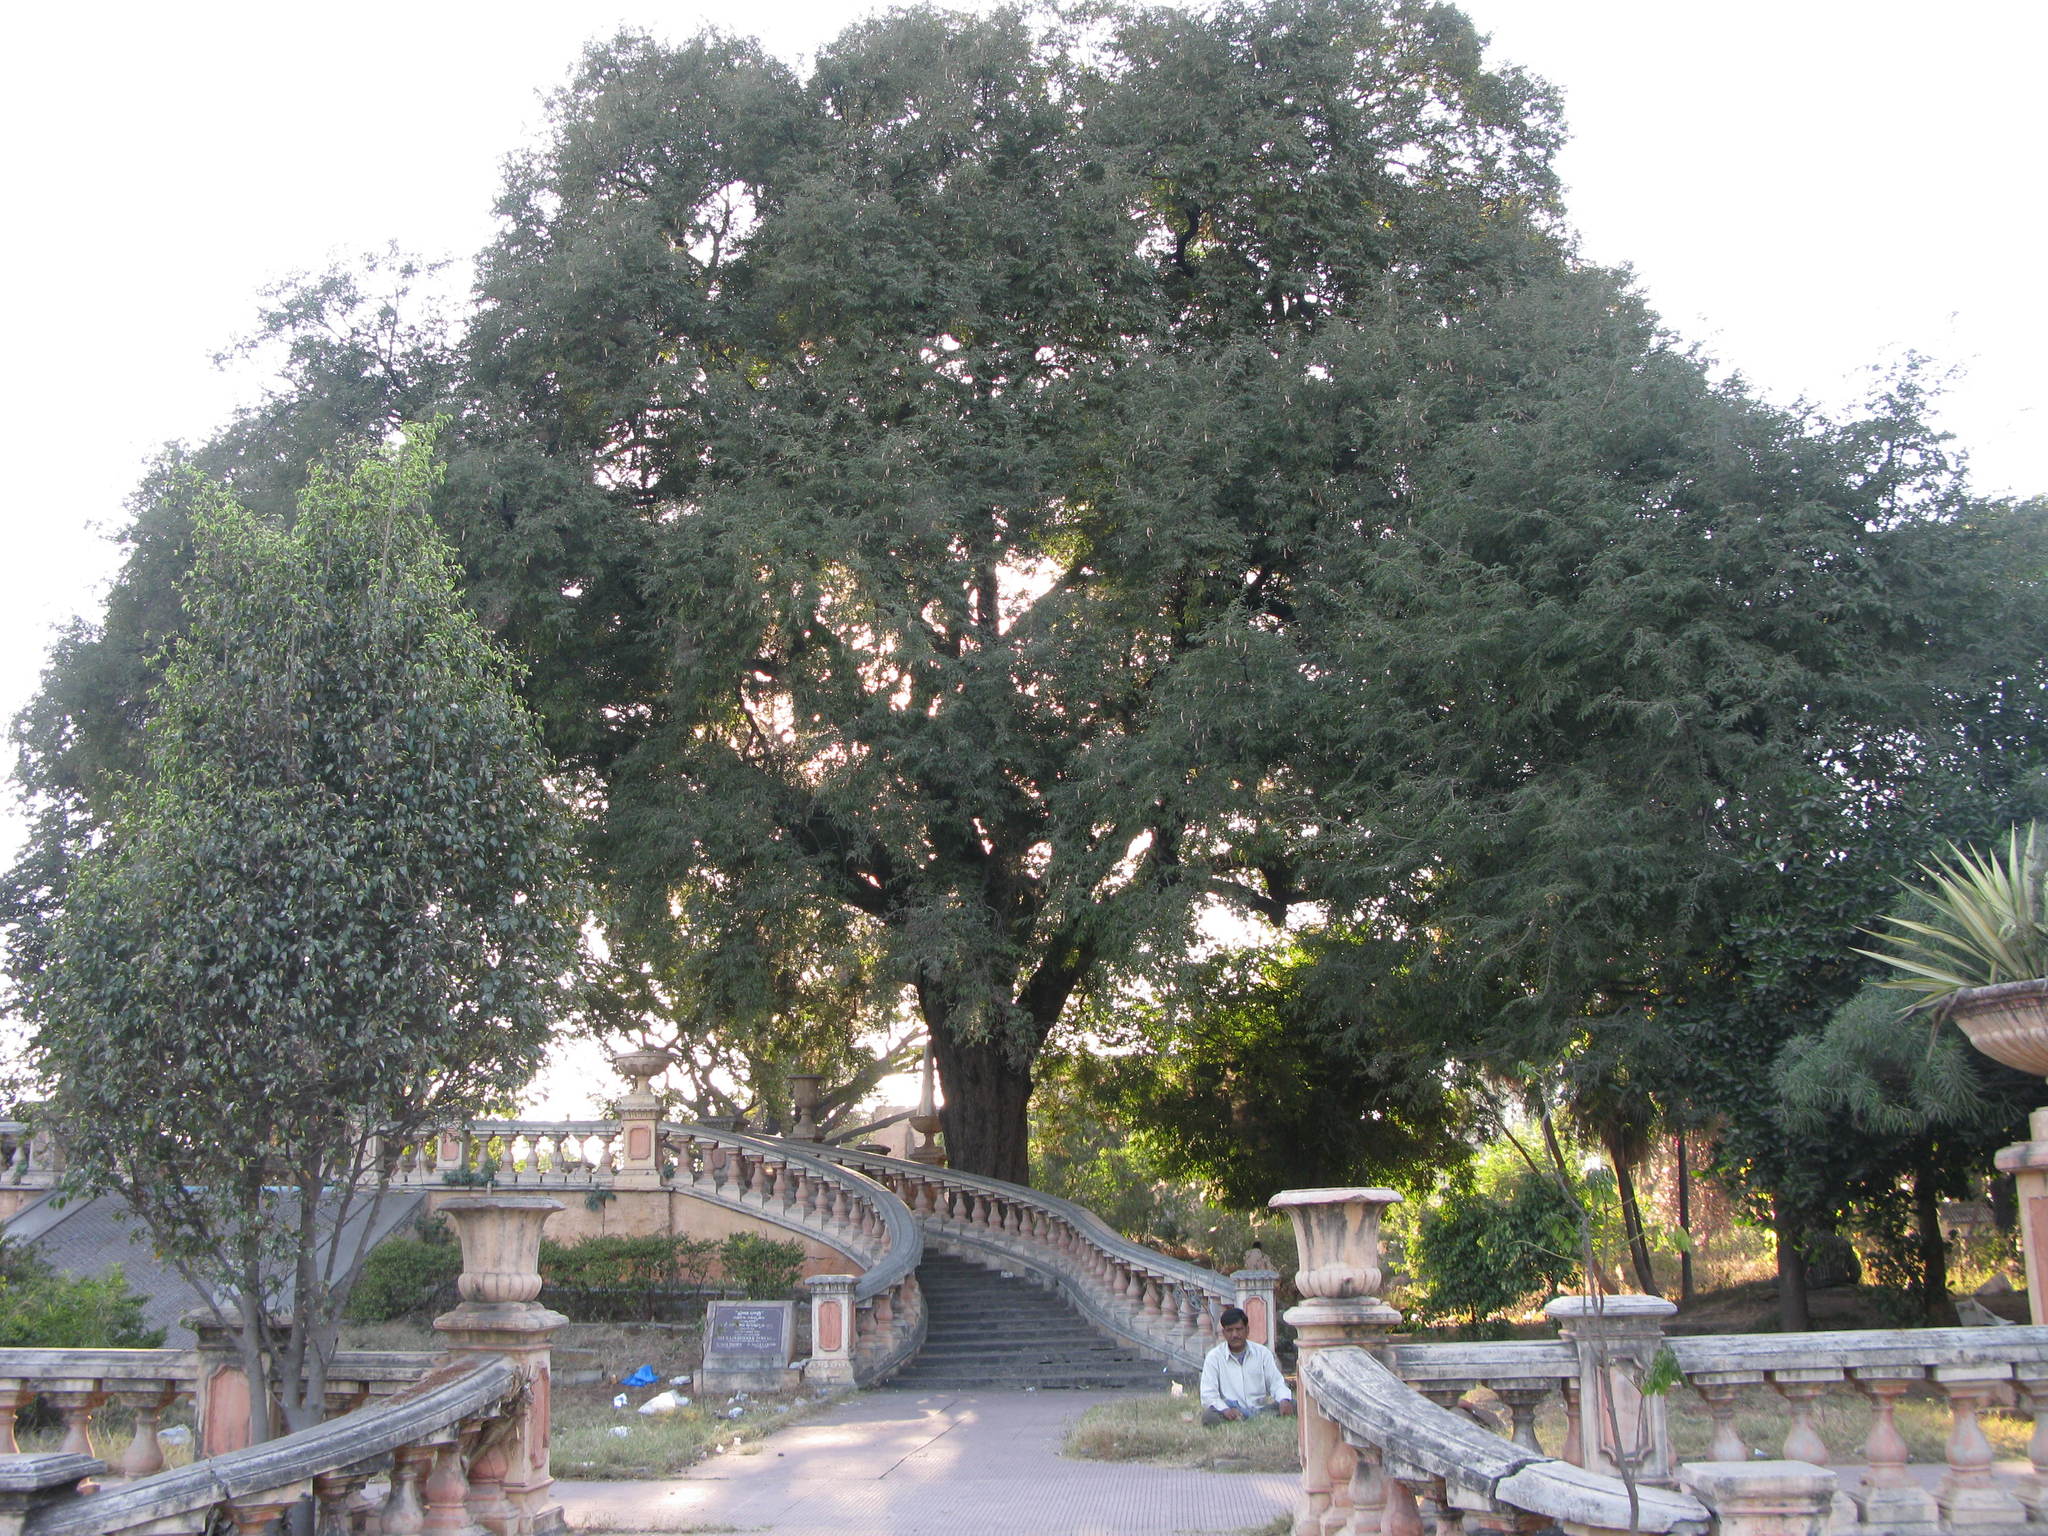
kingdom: Plantae
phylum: Tracheophyta
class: Magnoliopsida
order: Fabales
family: Fabaceae
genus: Tamarindus
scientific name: Tamarindus indica
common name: Tamarind
